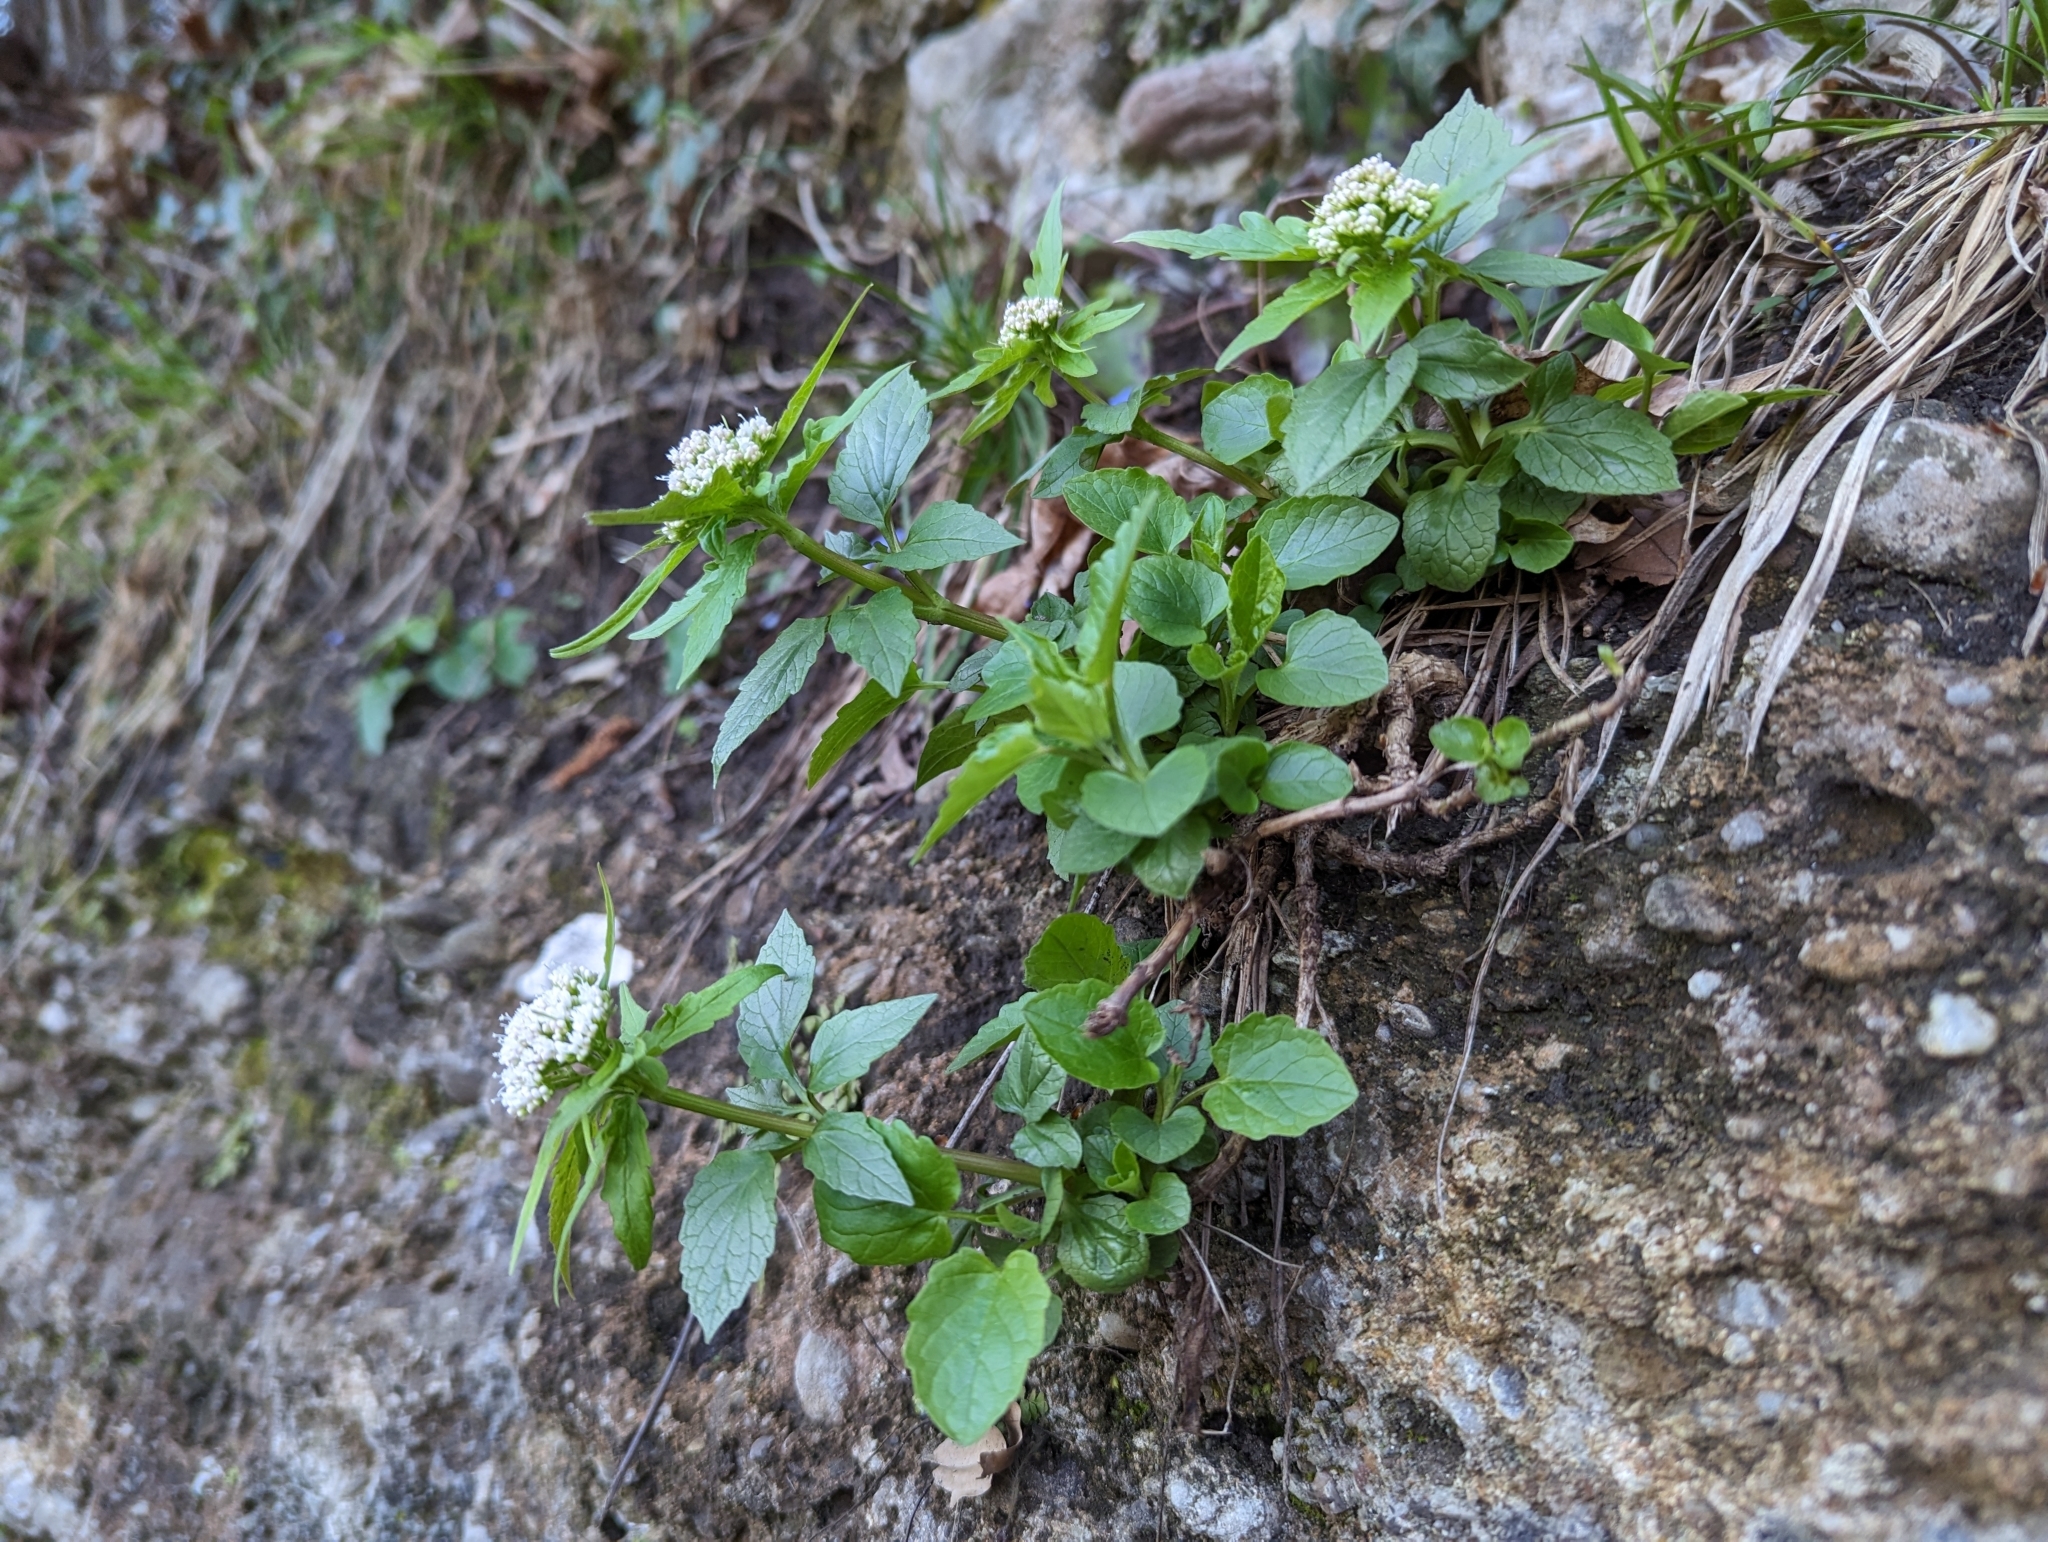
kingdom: Plantae
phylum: Tracheophyta
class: Magnoliopsida
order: Dipsacales
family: Caprifoliaceae
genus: Valeriana
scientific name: Valeriana tripteris
